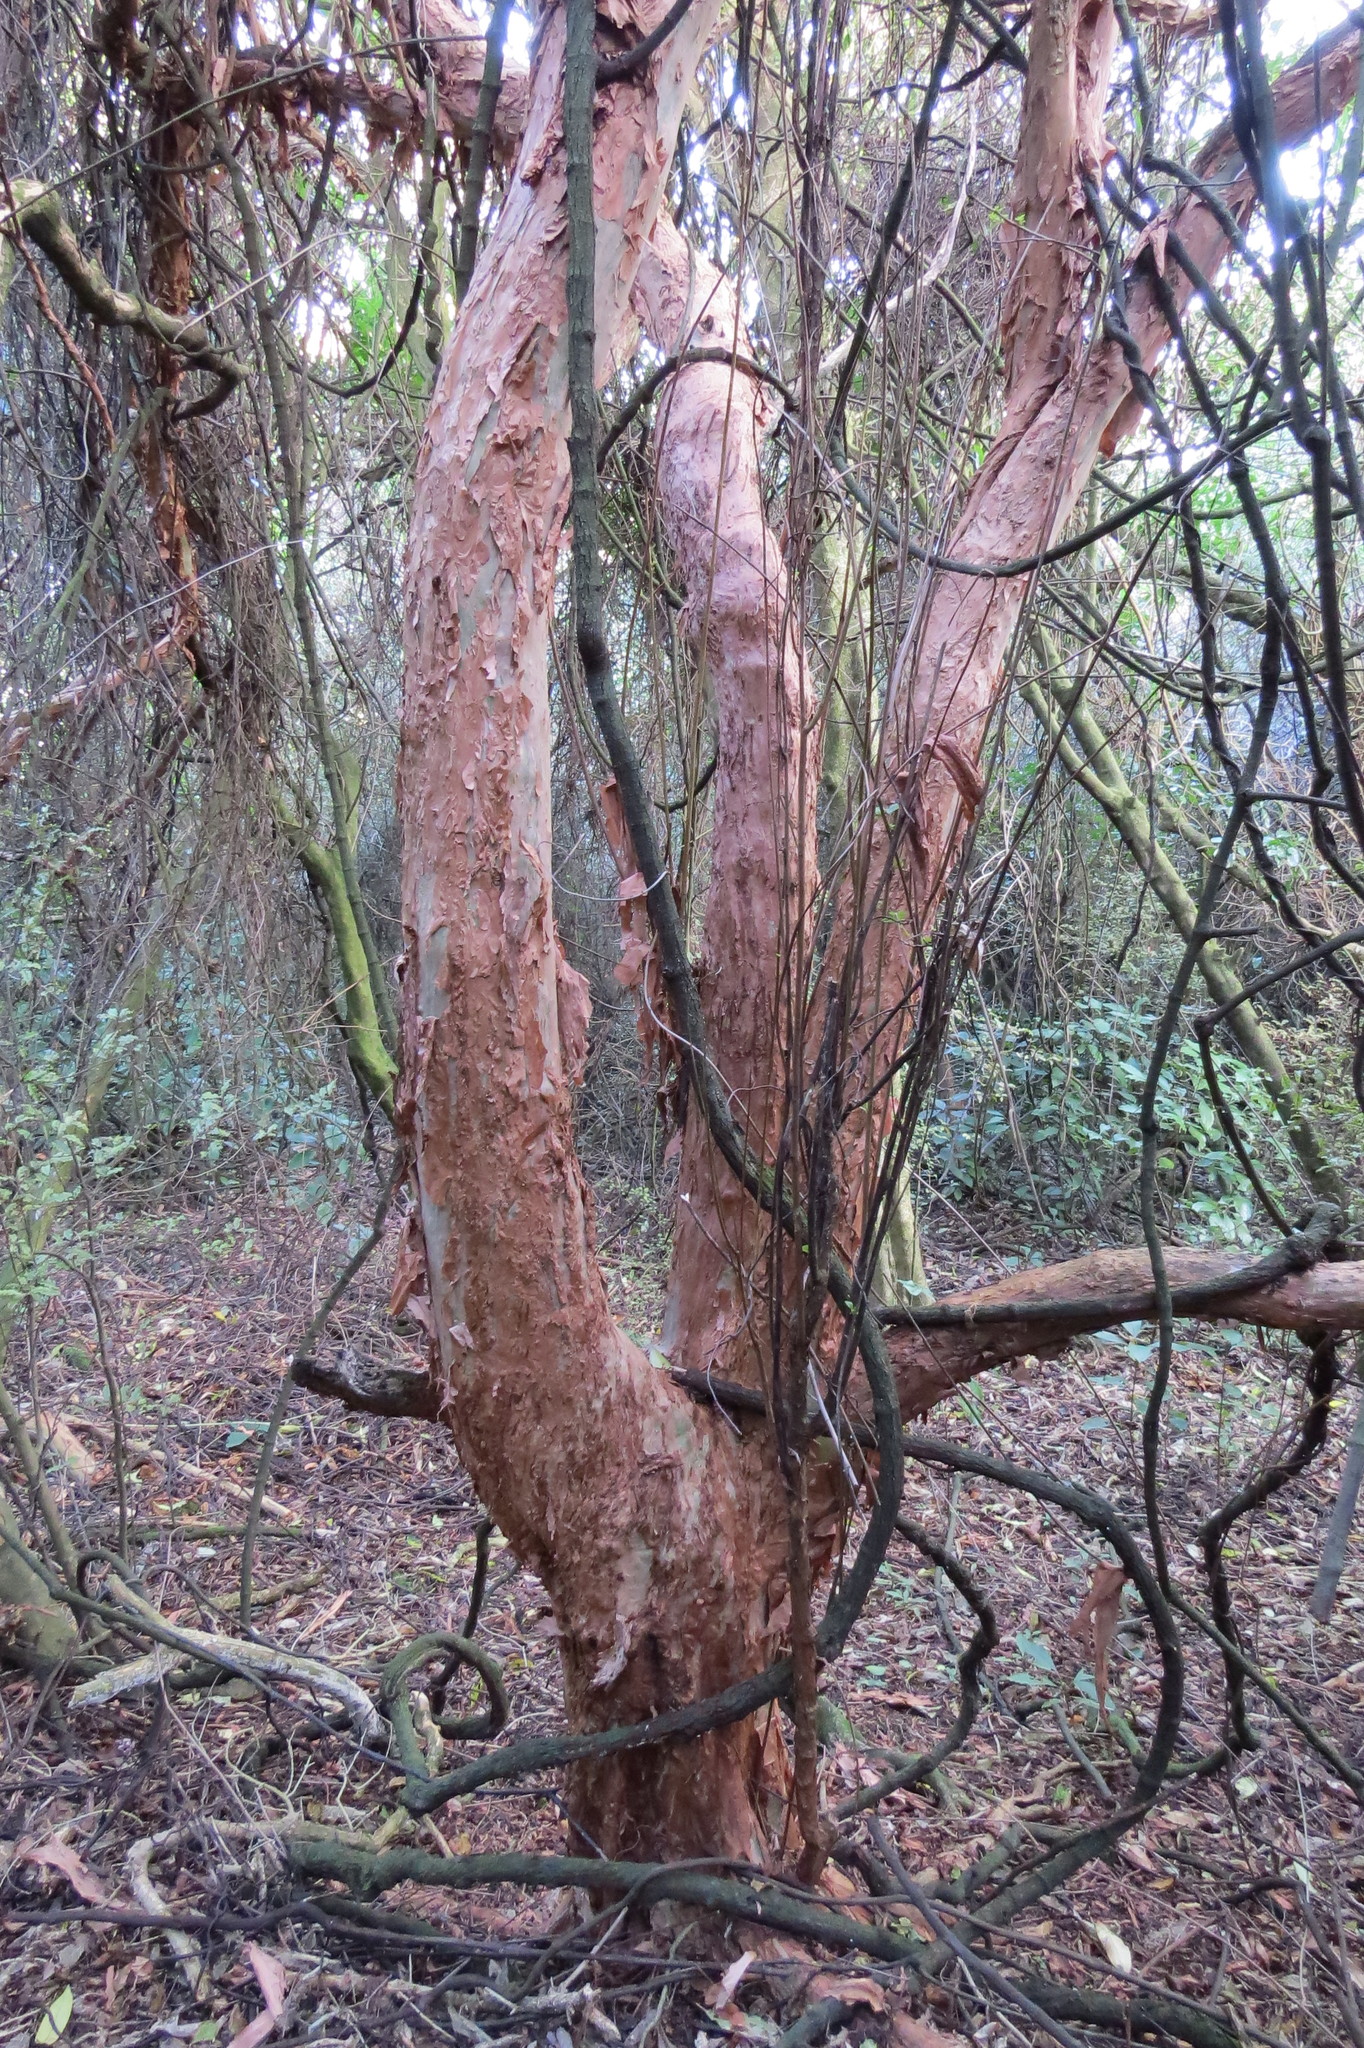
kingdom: Plantae
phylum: Tracheophyta
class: Magnoliopsida
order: Myrtales
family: Onagraceae
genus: Fuchsia
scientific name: Fuchsia excorticata
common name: Tree fuchsia
